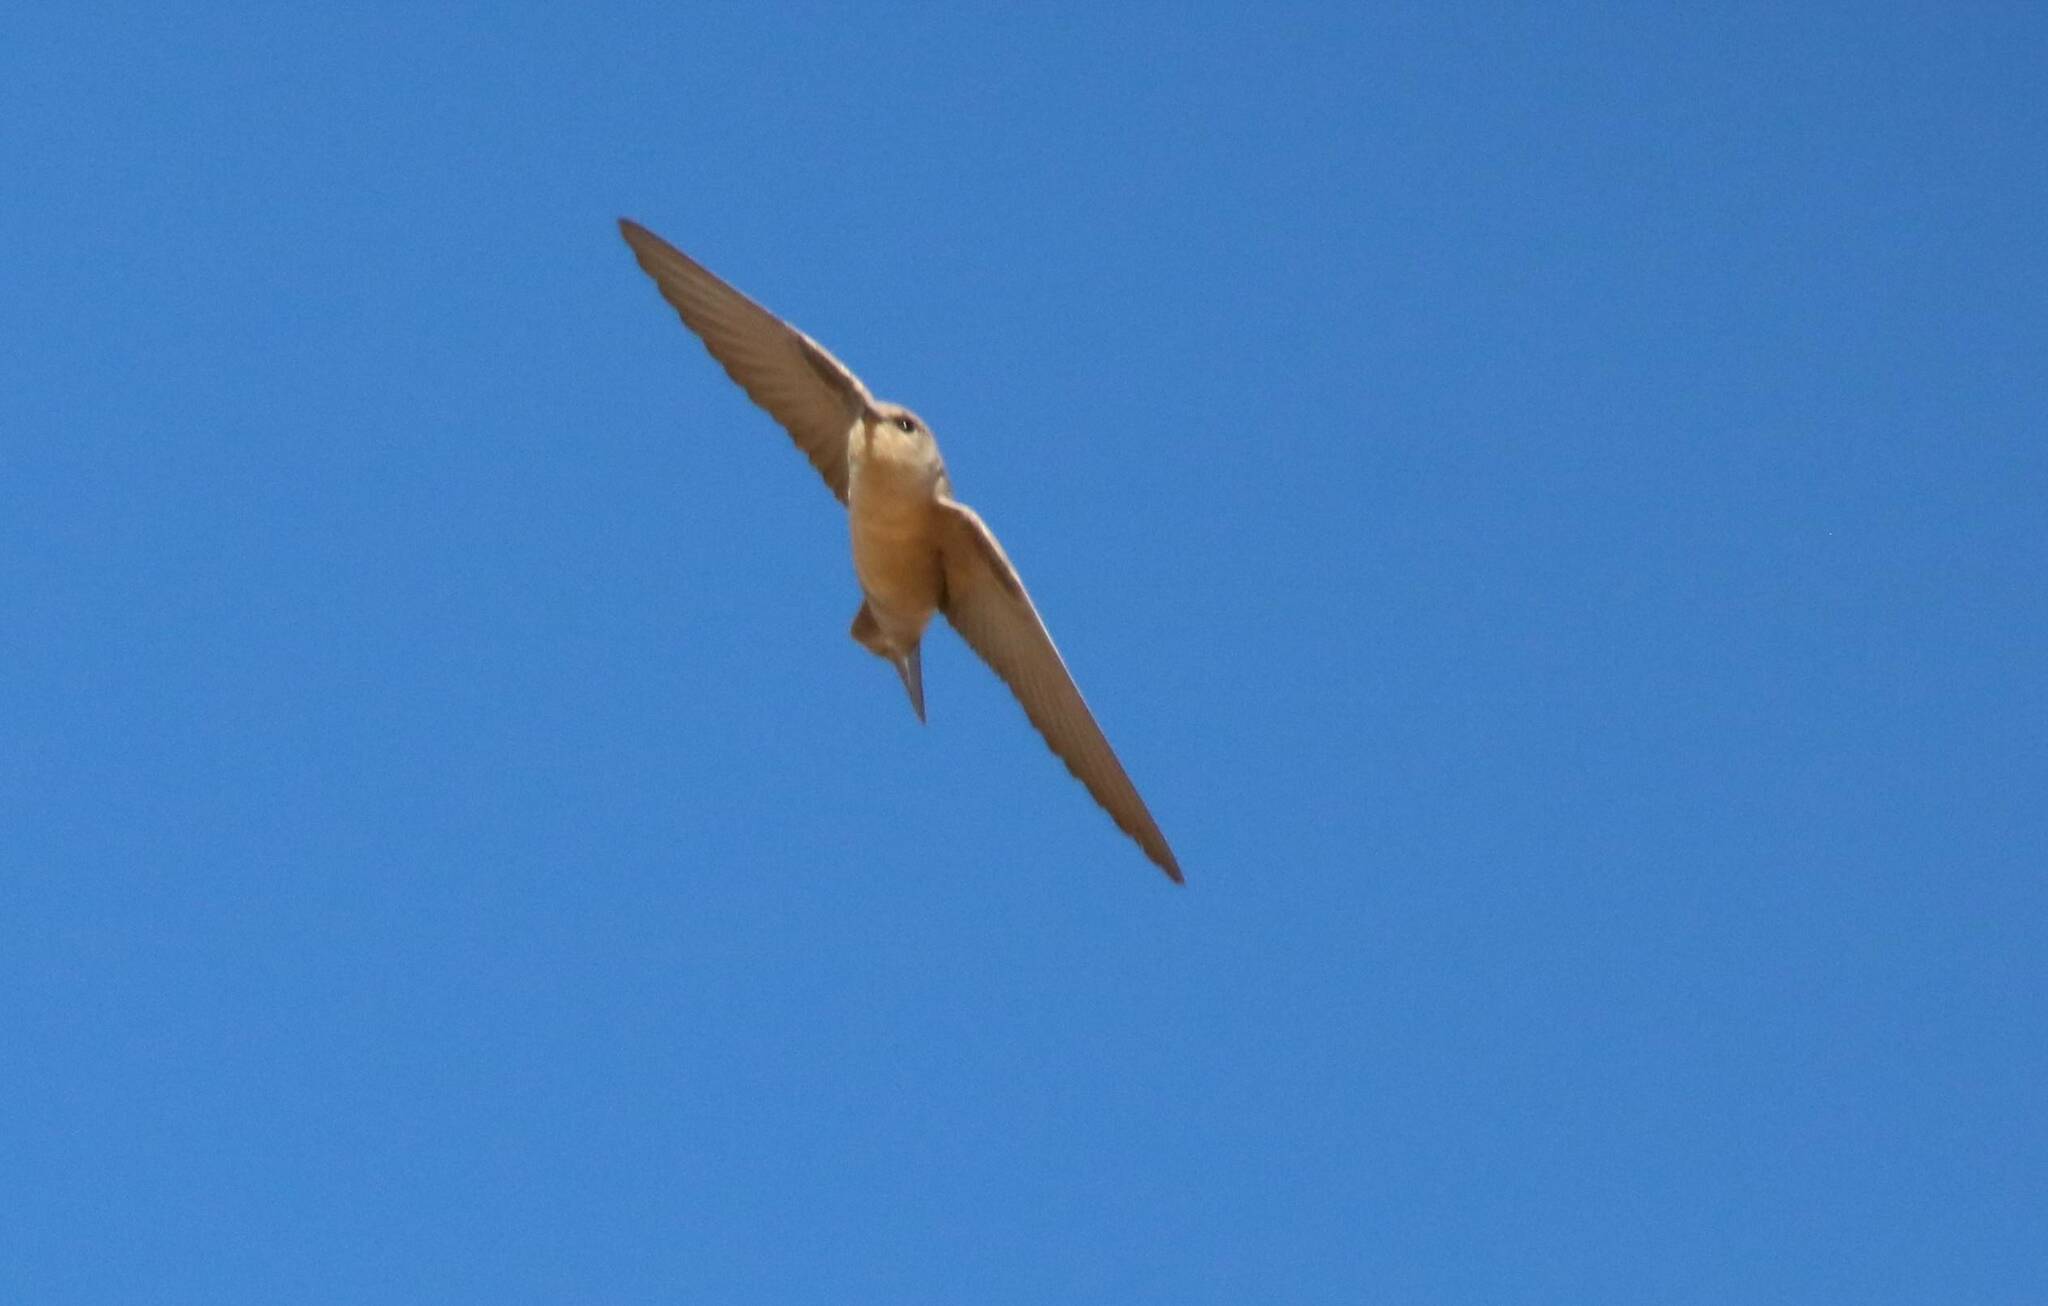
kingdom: Animalia
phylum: Chordata
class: Aves
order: Passeriformes
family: Hirundinidae
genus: Ptyonoprogne
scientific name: Ptyonoprogne fuligula
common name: Rock martin
